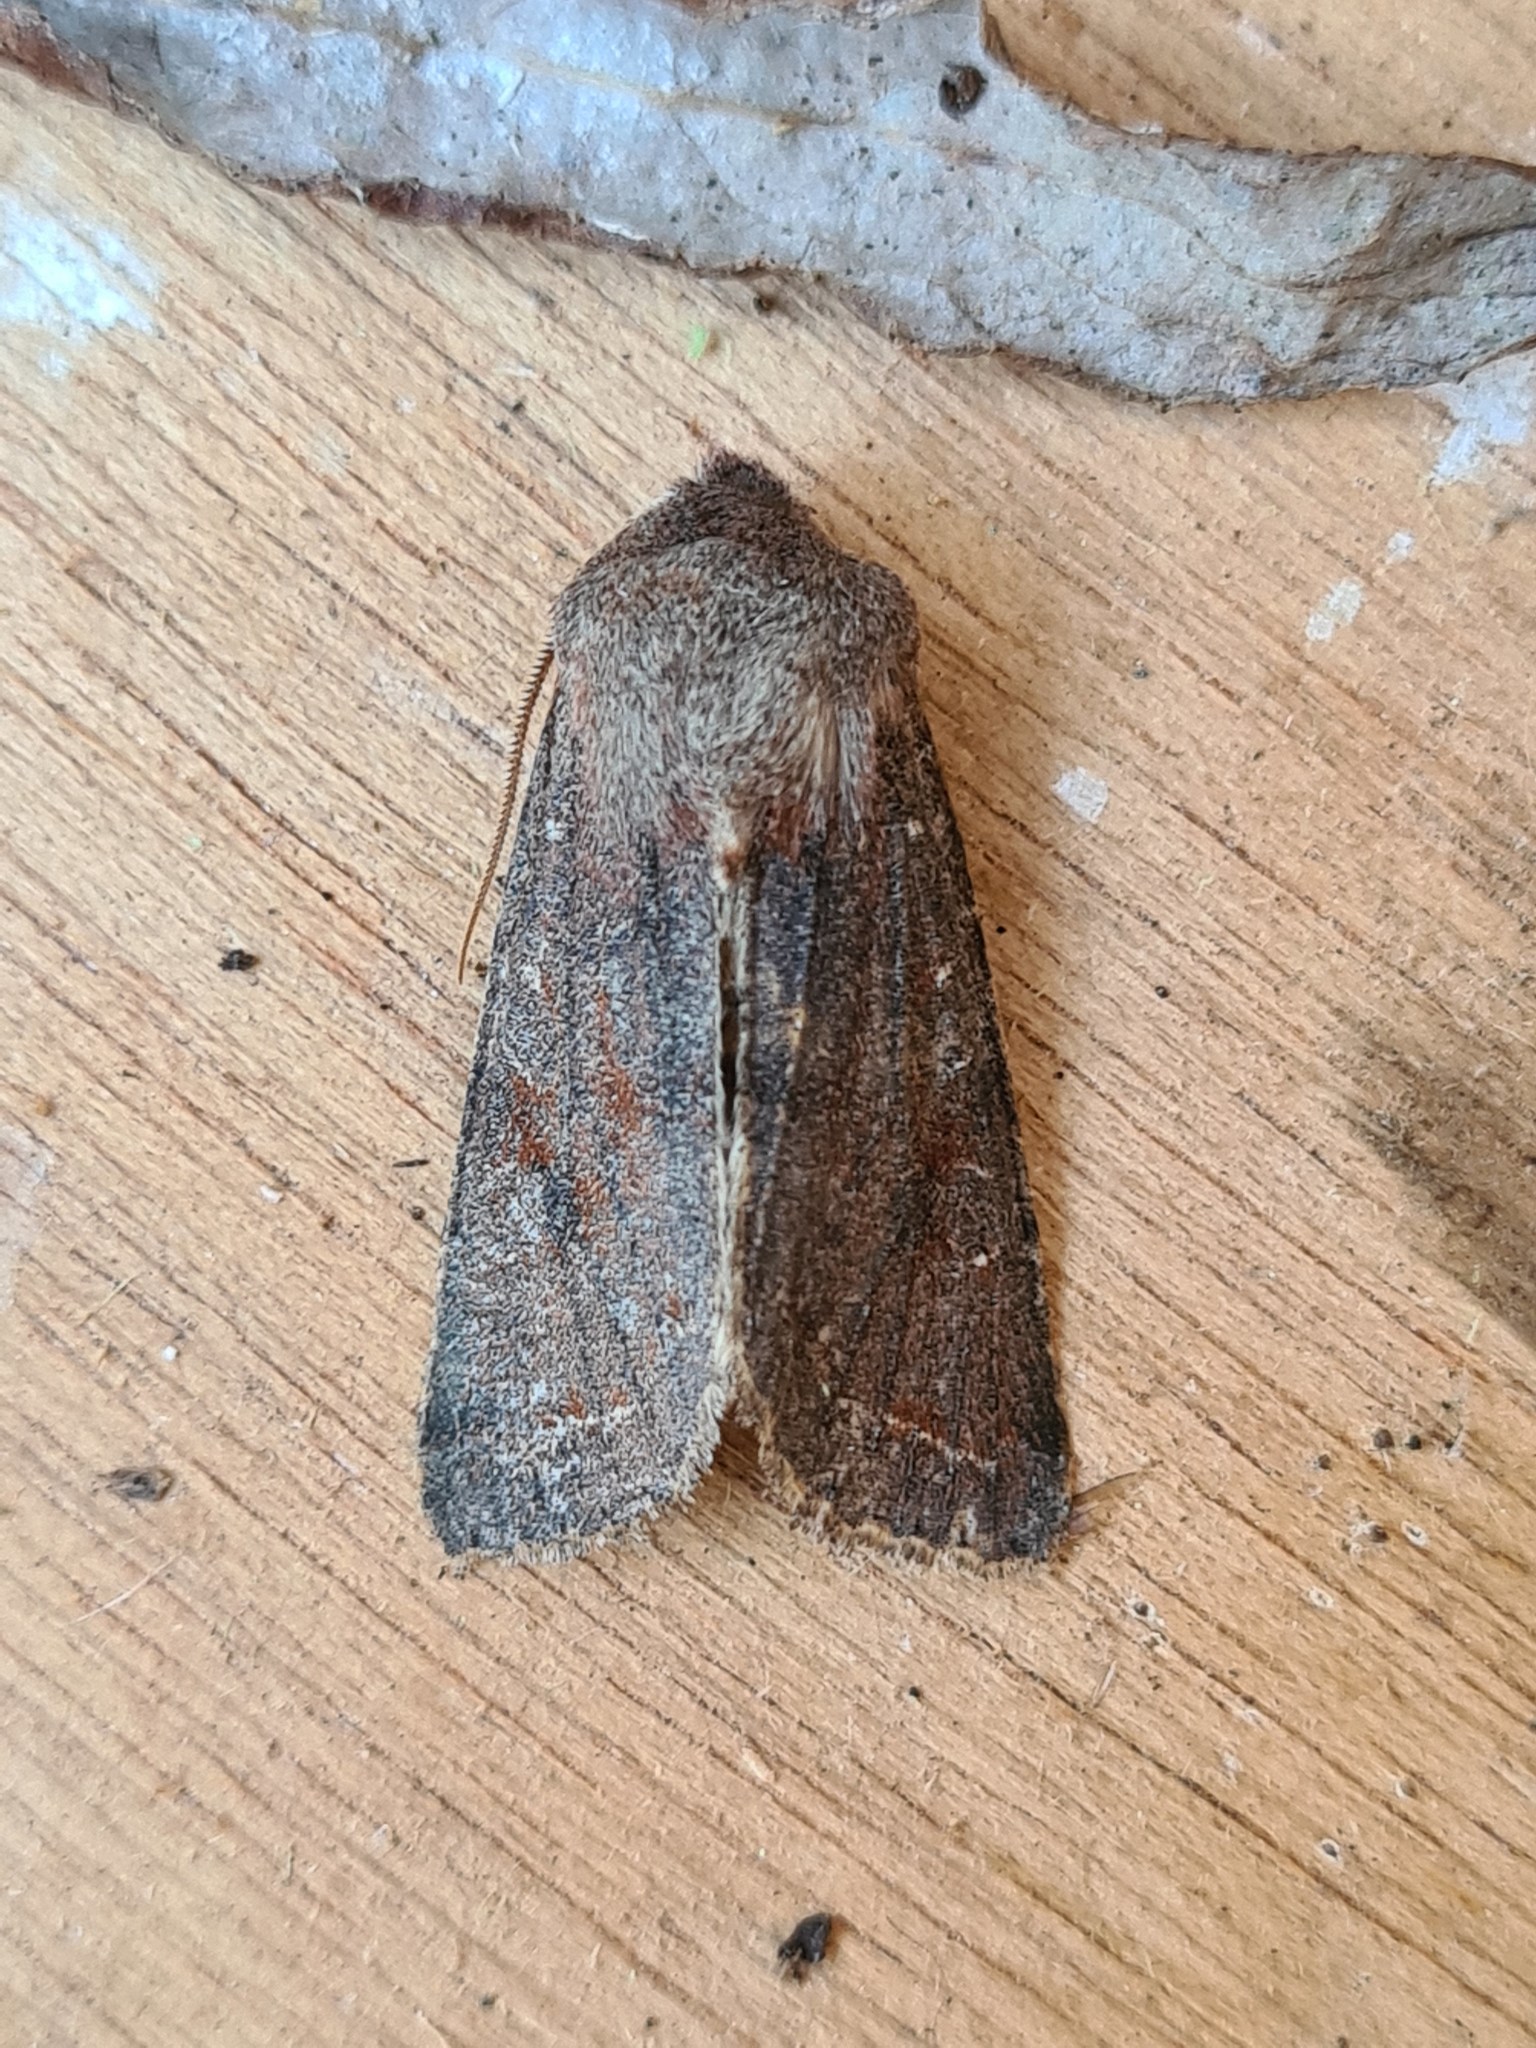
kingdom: Animalia
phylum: Arthropoda
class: Insecta
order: Lepidoptera
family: Noctuidae
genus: Orthosia
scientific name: Orthosia incerta
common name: Clouded drab
